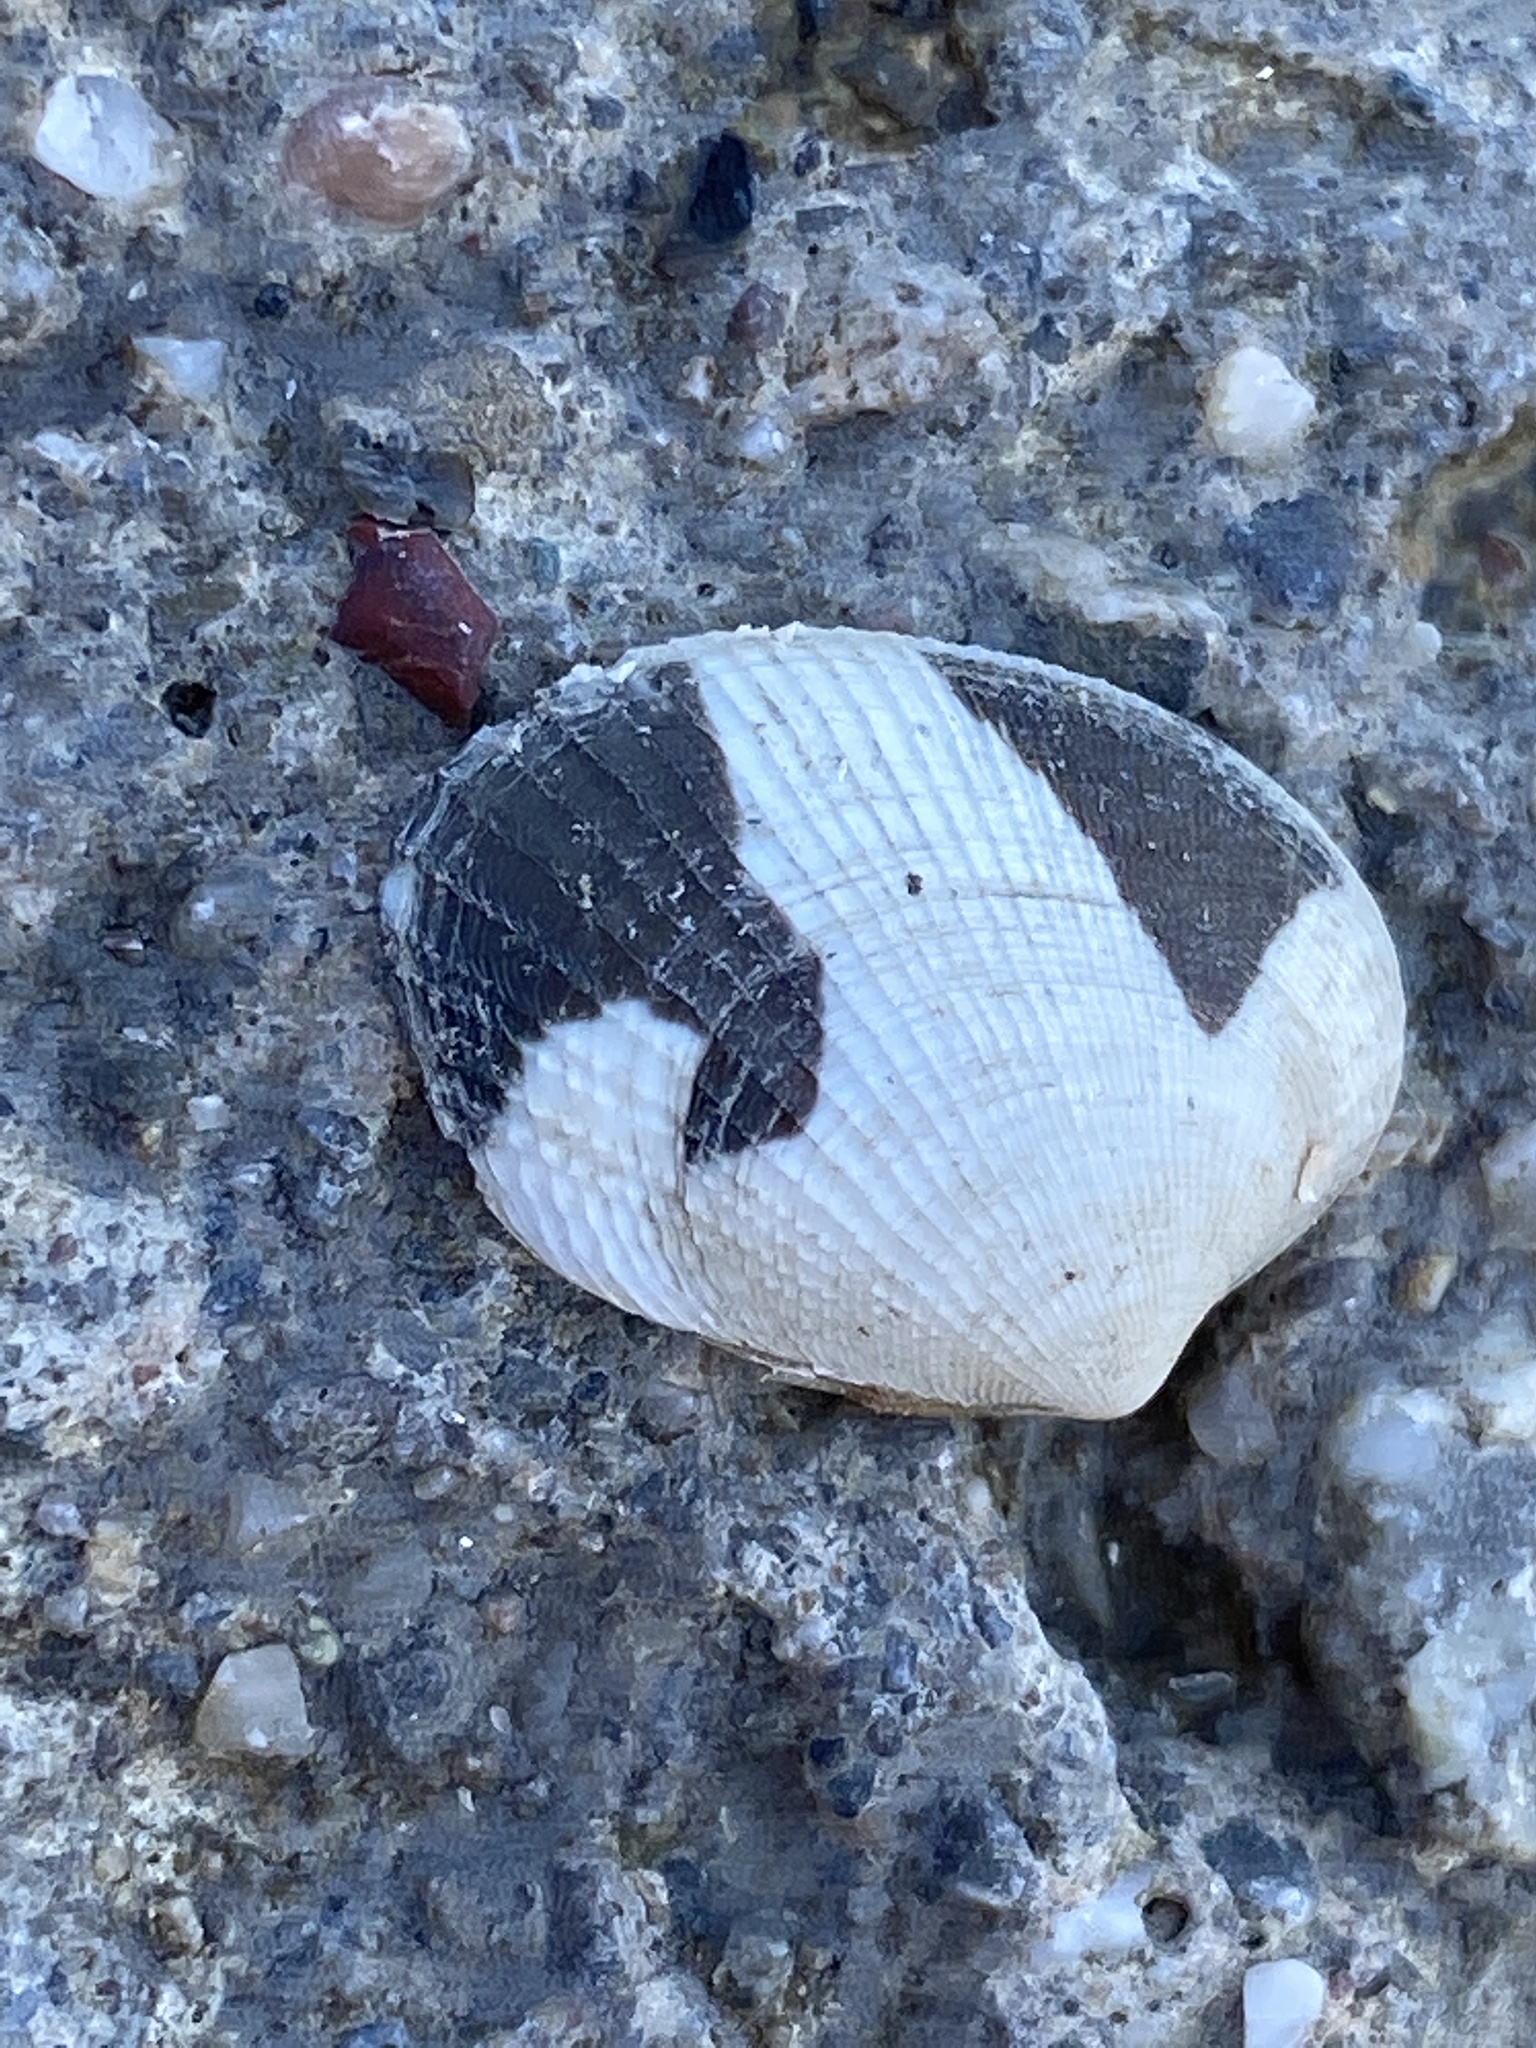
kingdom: Animalia
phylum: Mollusca
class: Bivalvia
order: Venerida
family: Veneridae
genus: Ruditapes
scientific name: Ruditapes philippinarum
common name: Manila clam
